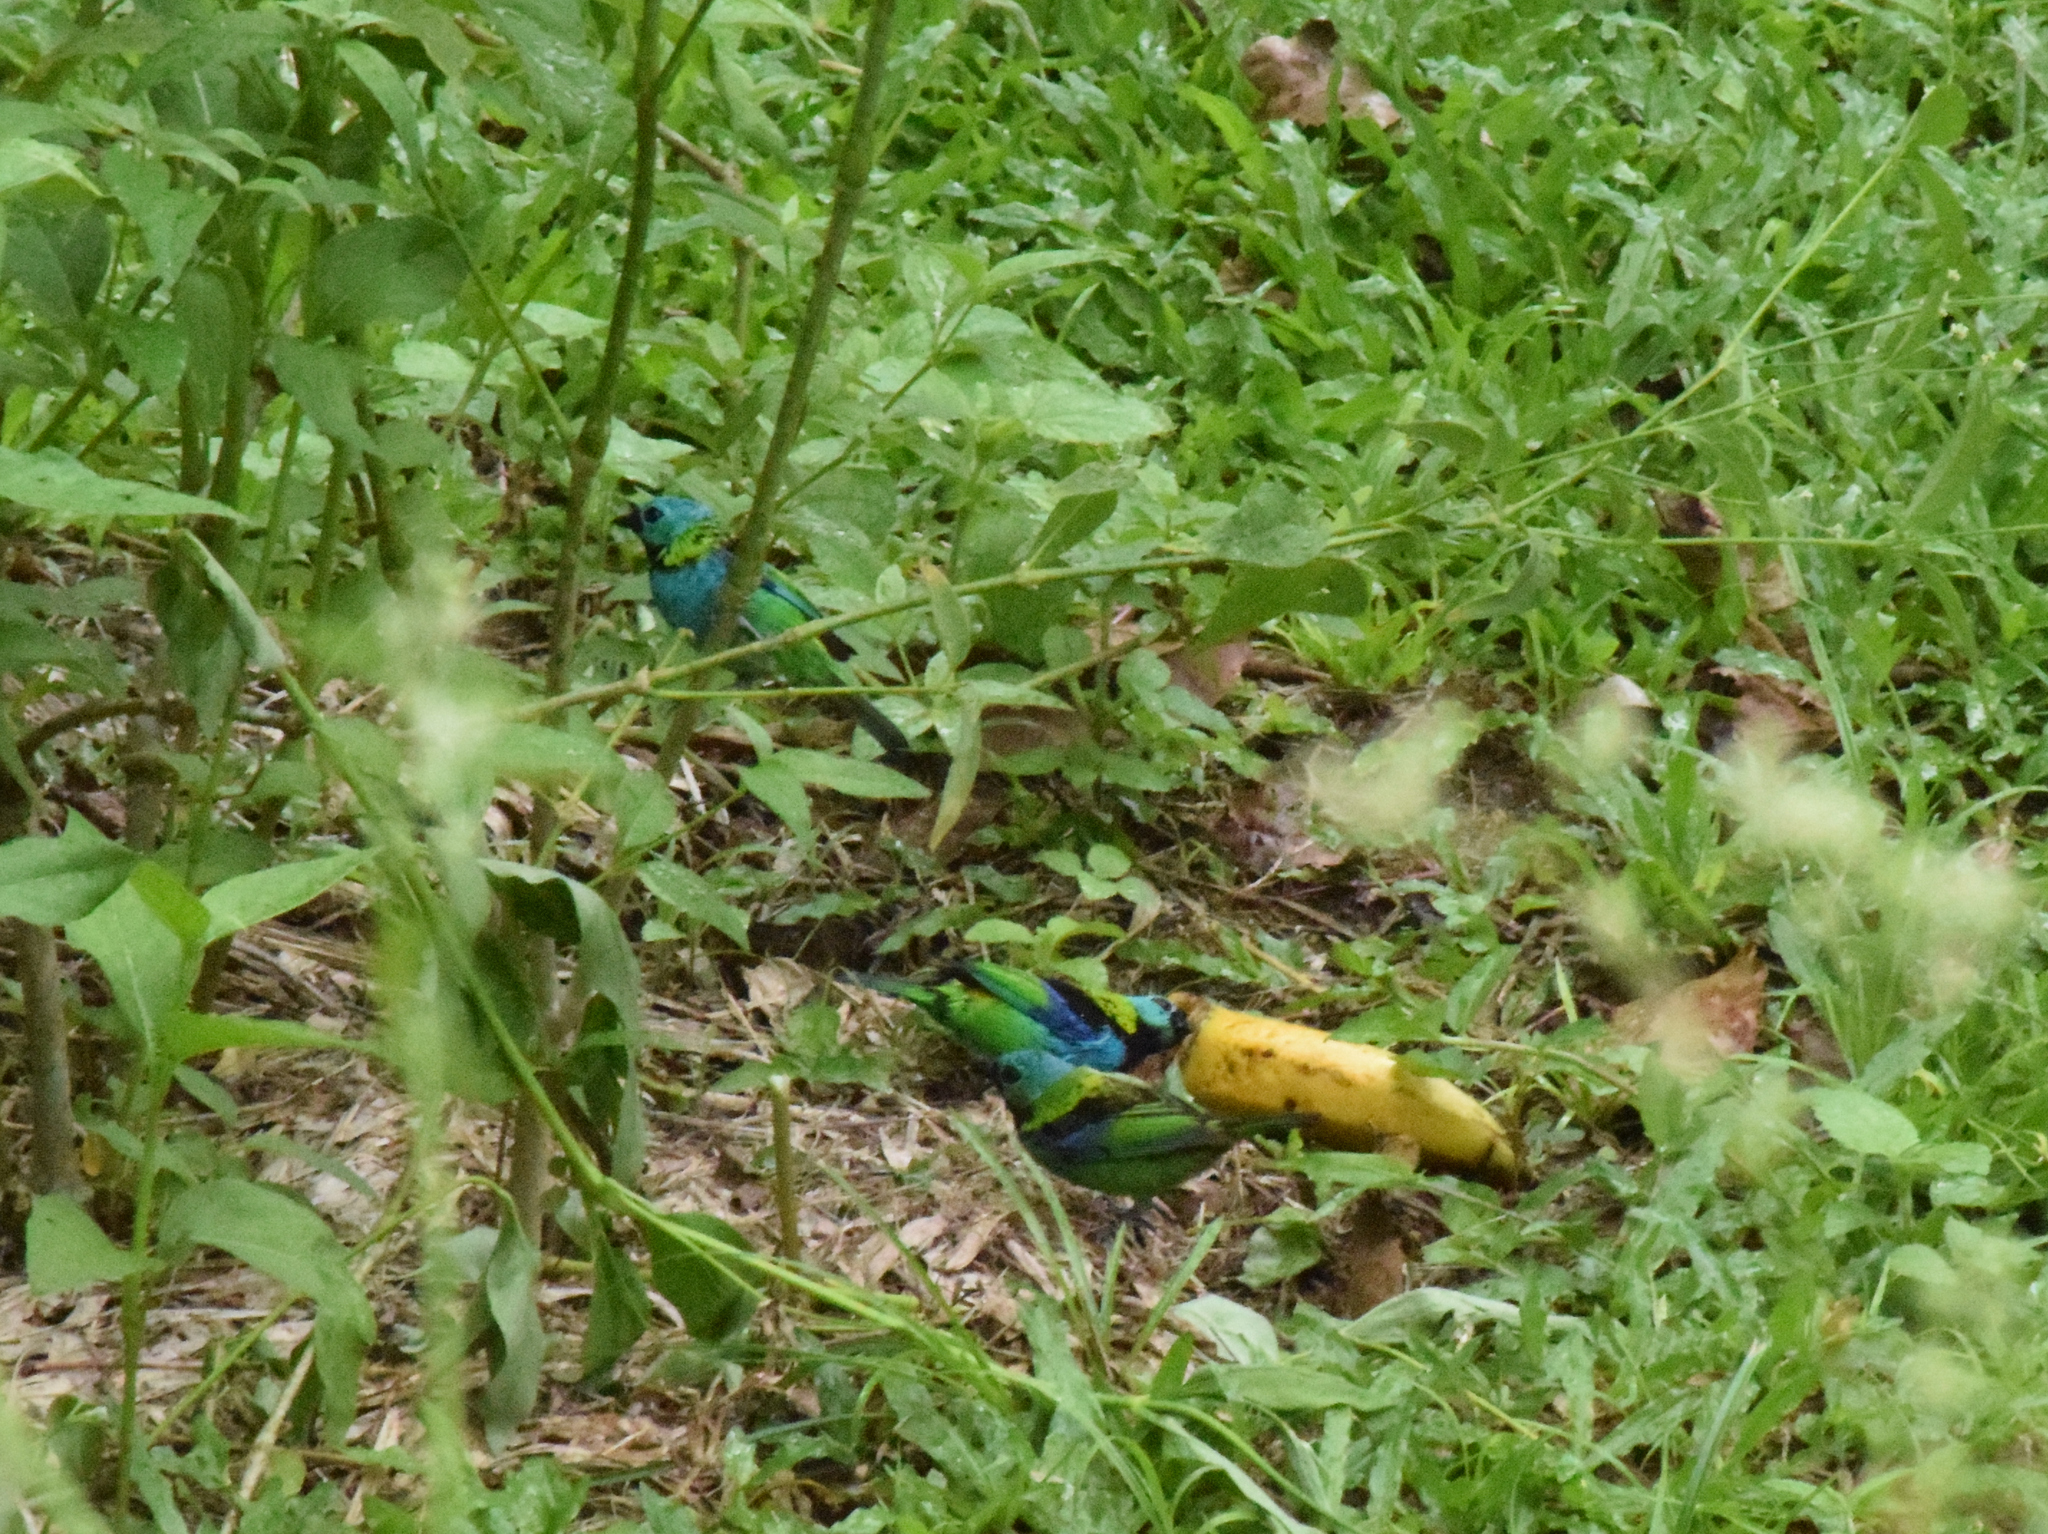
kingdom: Animalia
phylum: Chordata
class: Aves
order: Passeriformes
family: Thraupidae
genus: Tangara
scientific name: Tangara seledon
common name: Green-headed tanager
